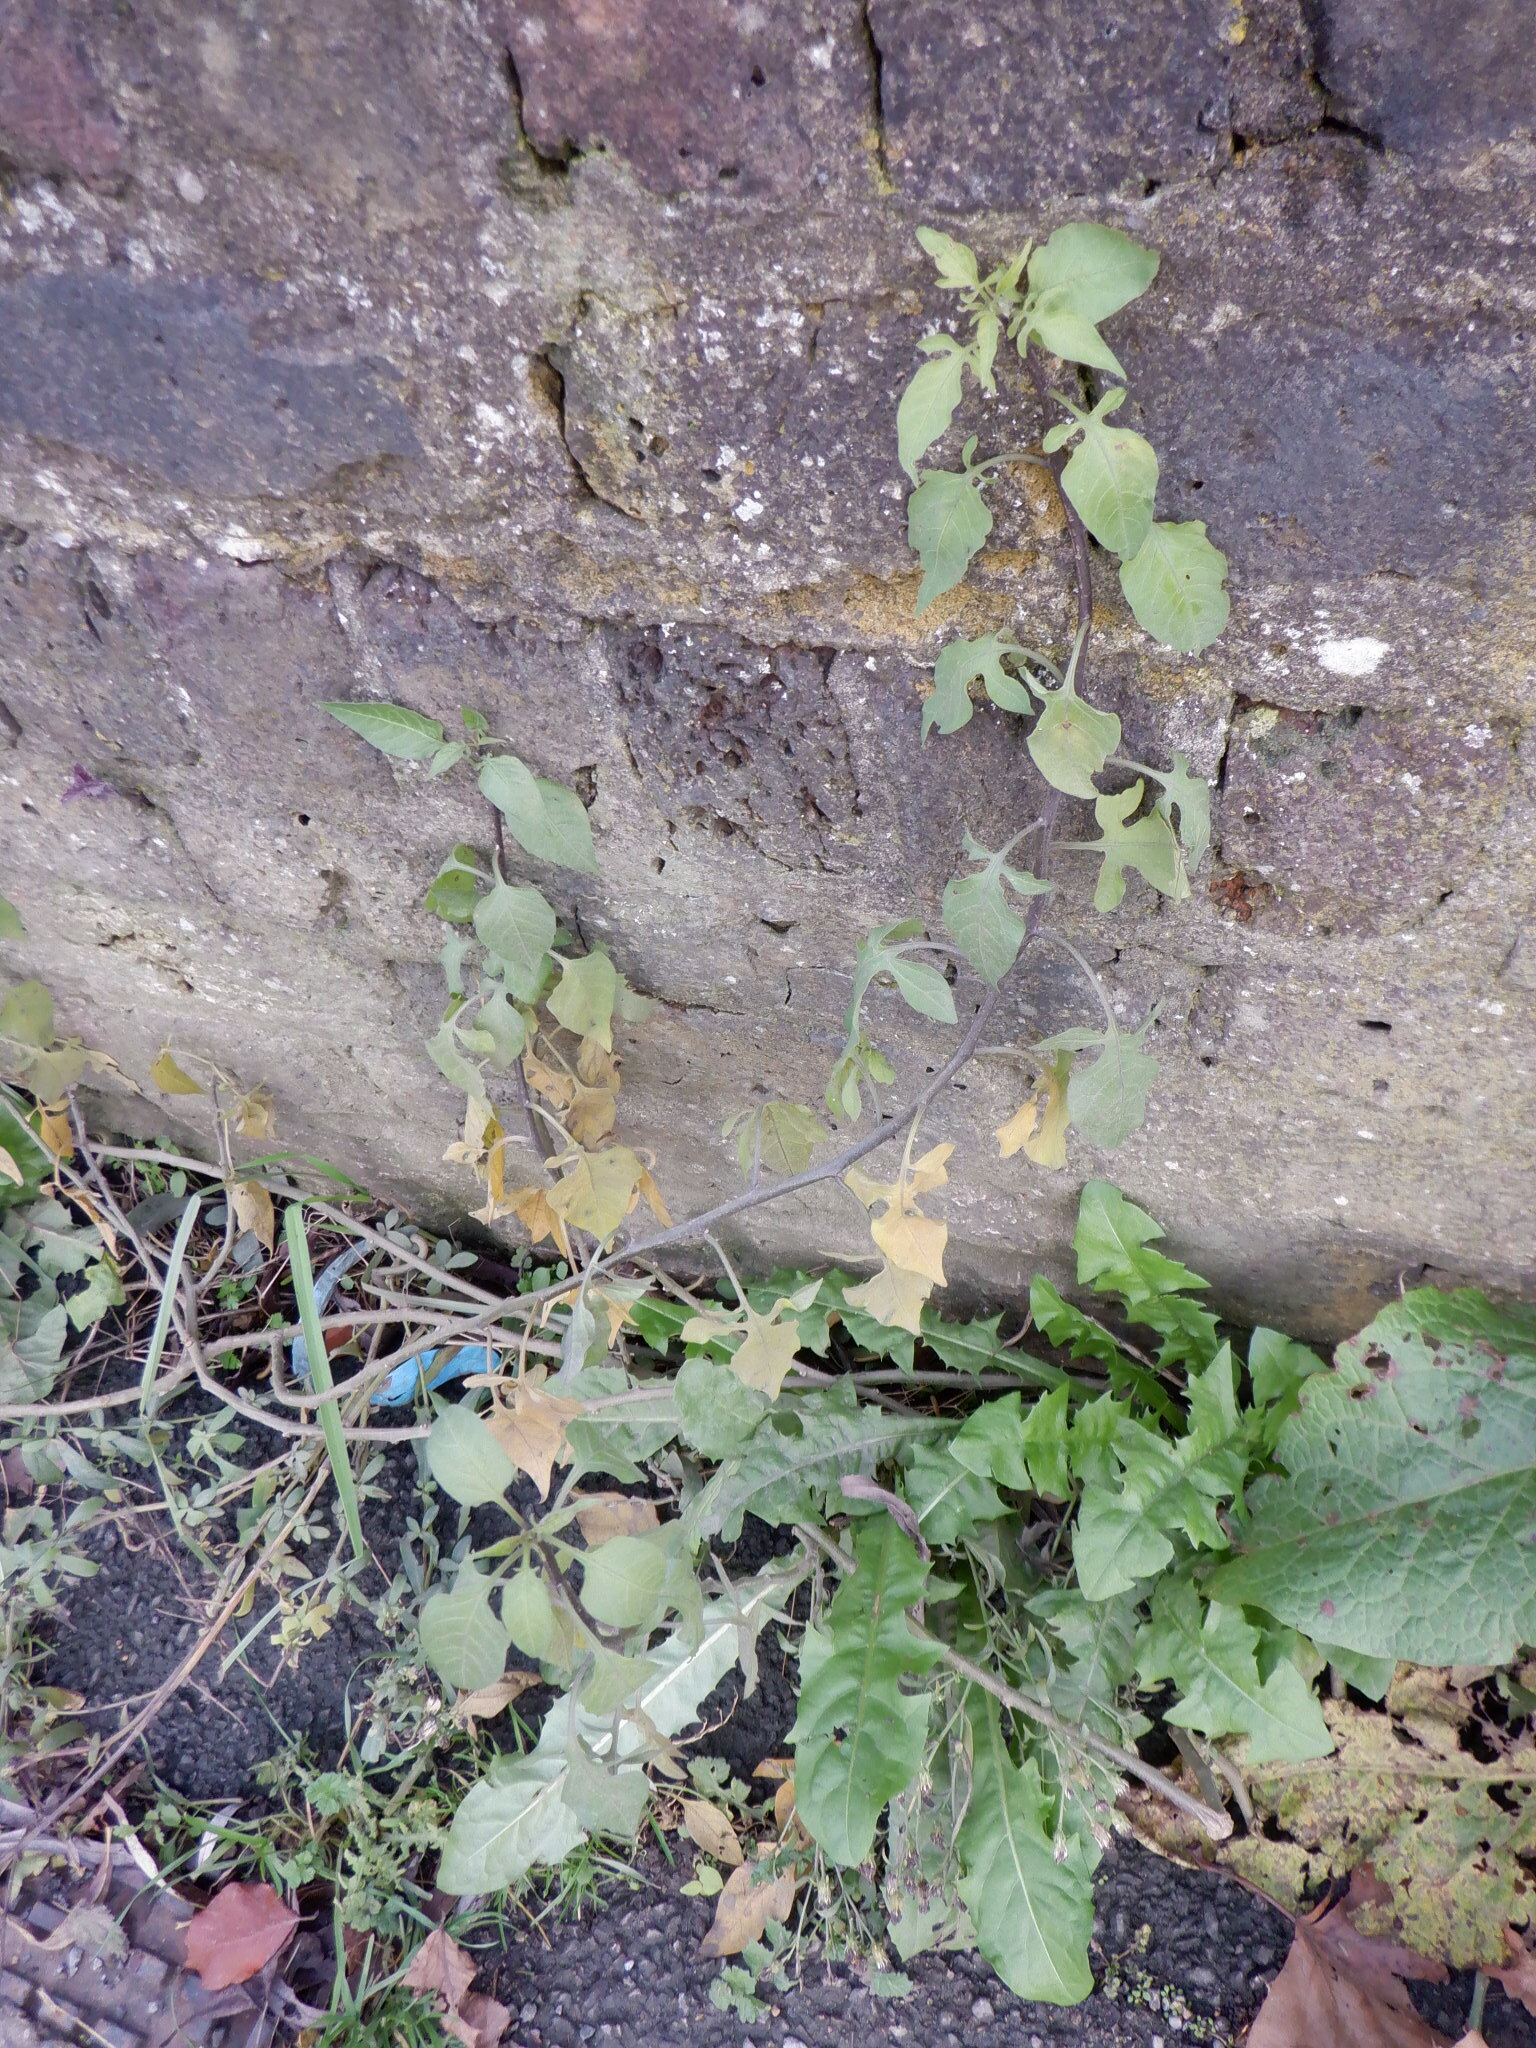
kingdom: Plantae
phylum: Tracheophyta
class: Magnoliopsida
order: Solanales
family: Solanaceae
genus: Solanum
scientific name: Solanum dulcamara
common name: Climbing nightshade
